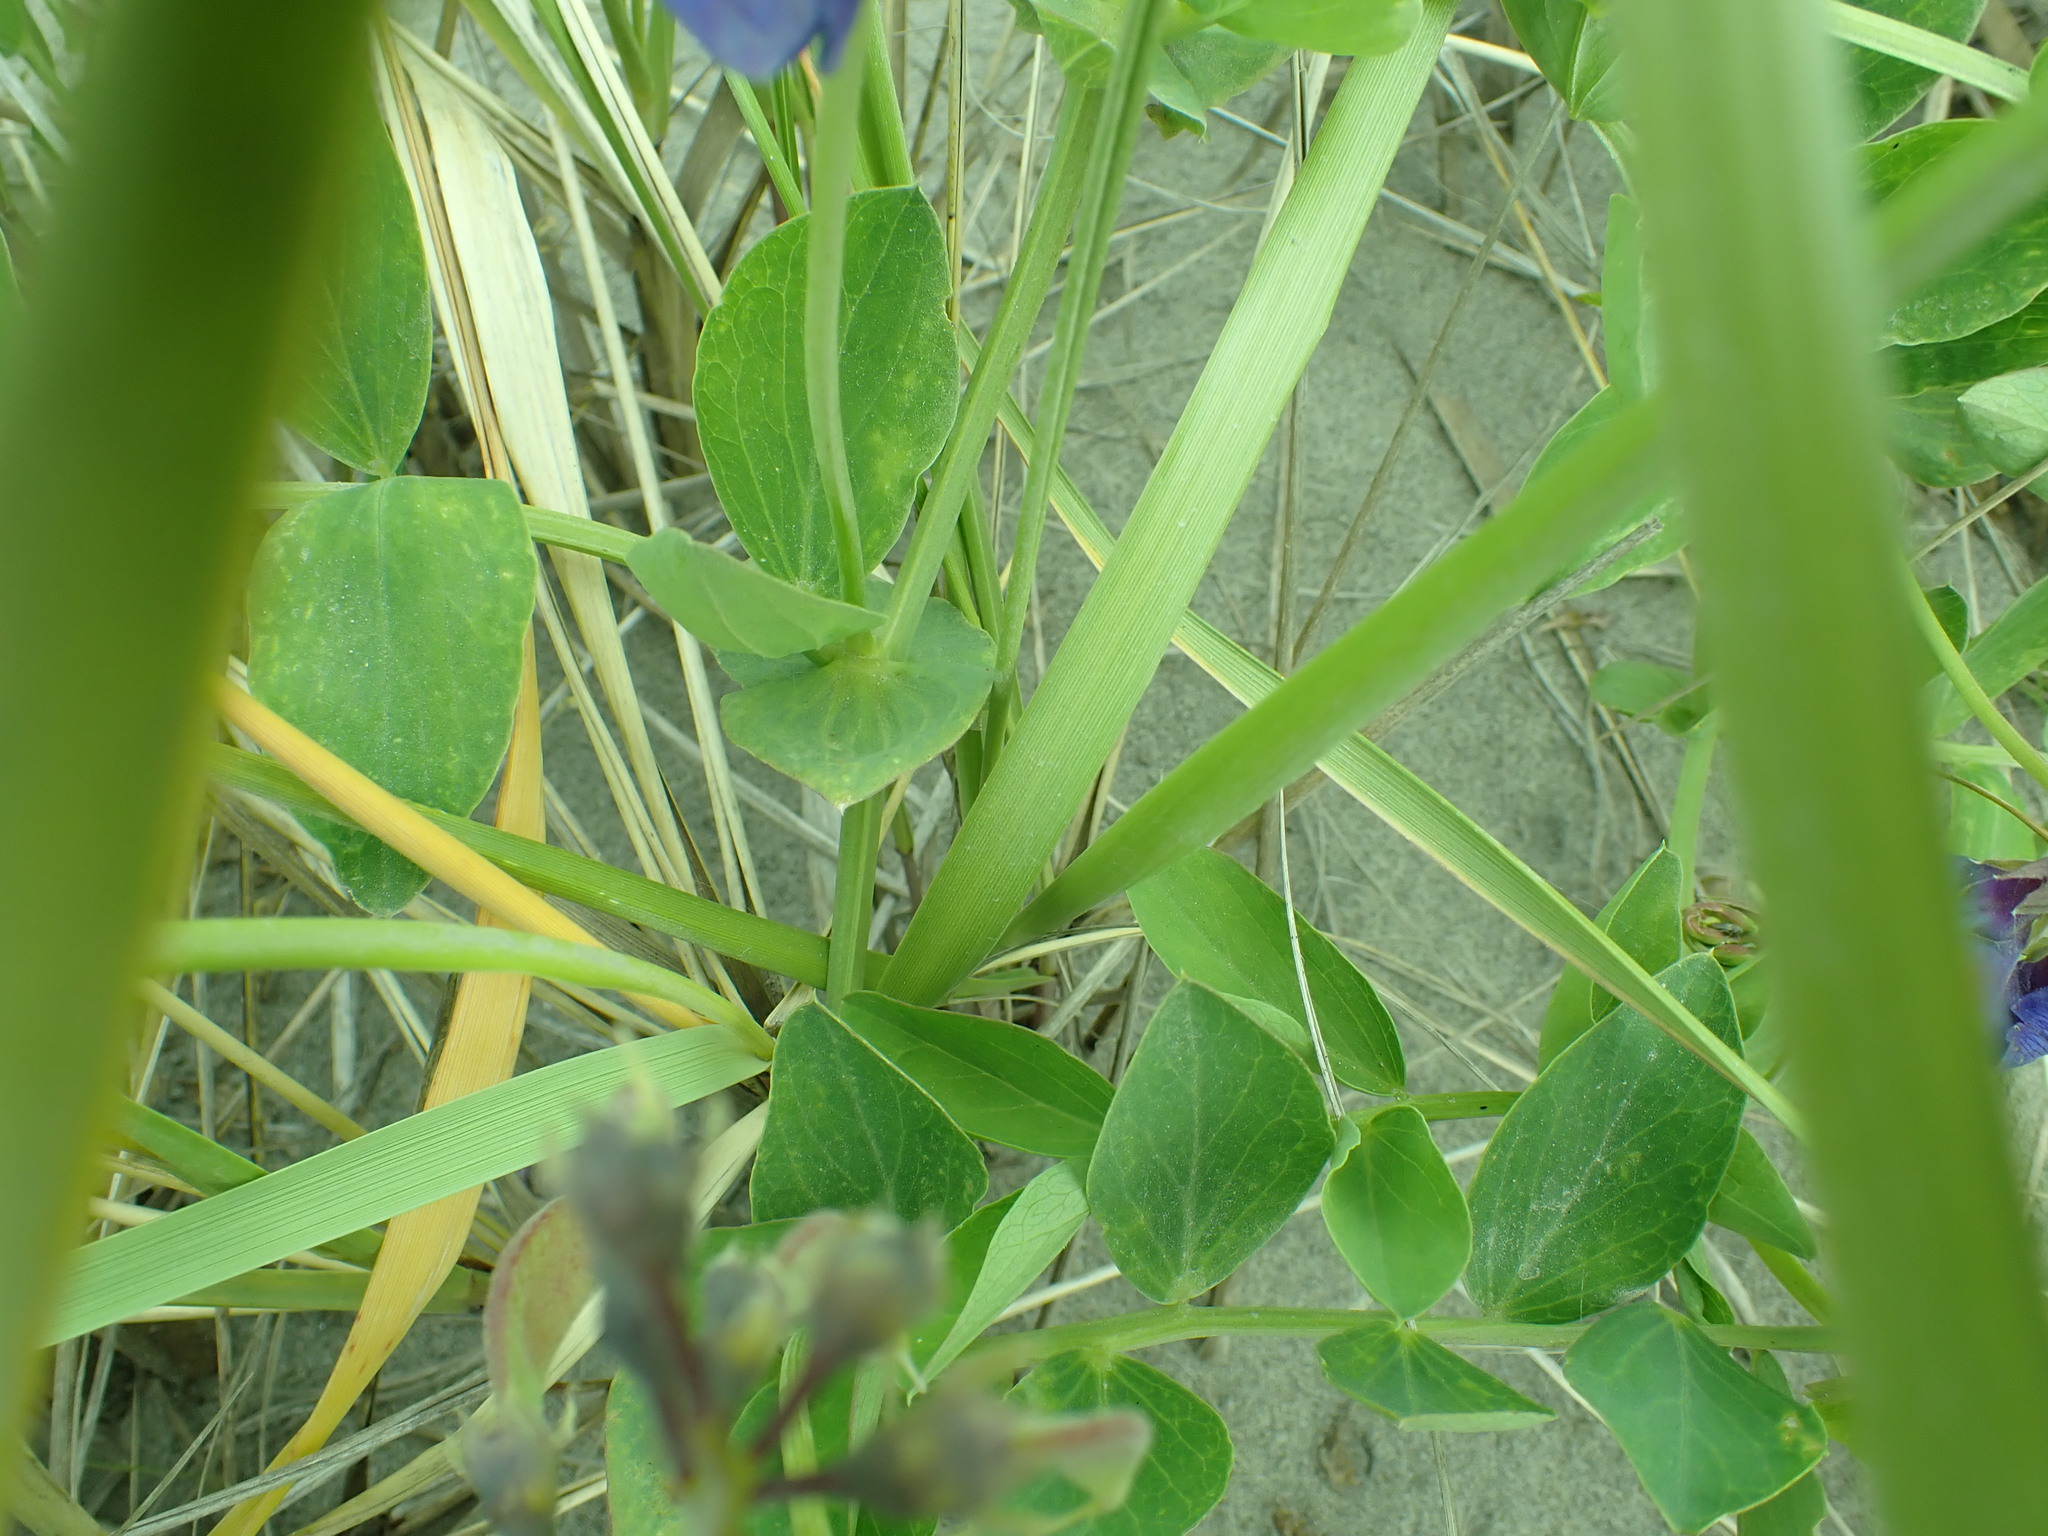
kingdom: Plantae
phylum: Tracheophyta
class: Magnoliopsida
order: Fabales
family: Fabaceae
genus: Lathyrus
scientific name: Lathyrus japonicus
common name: Sea pea
